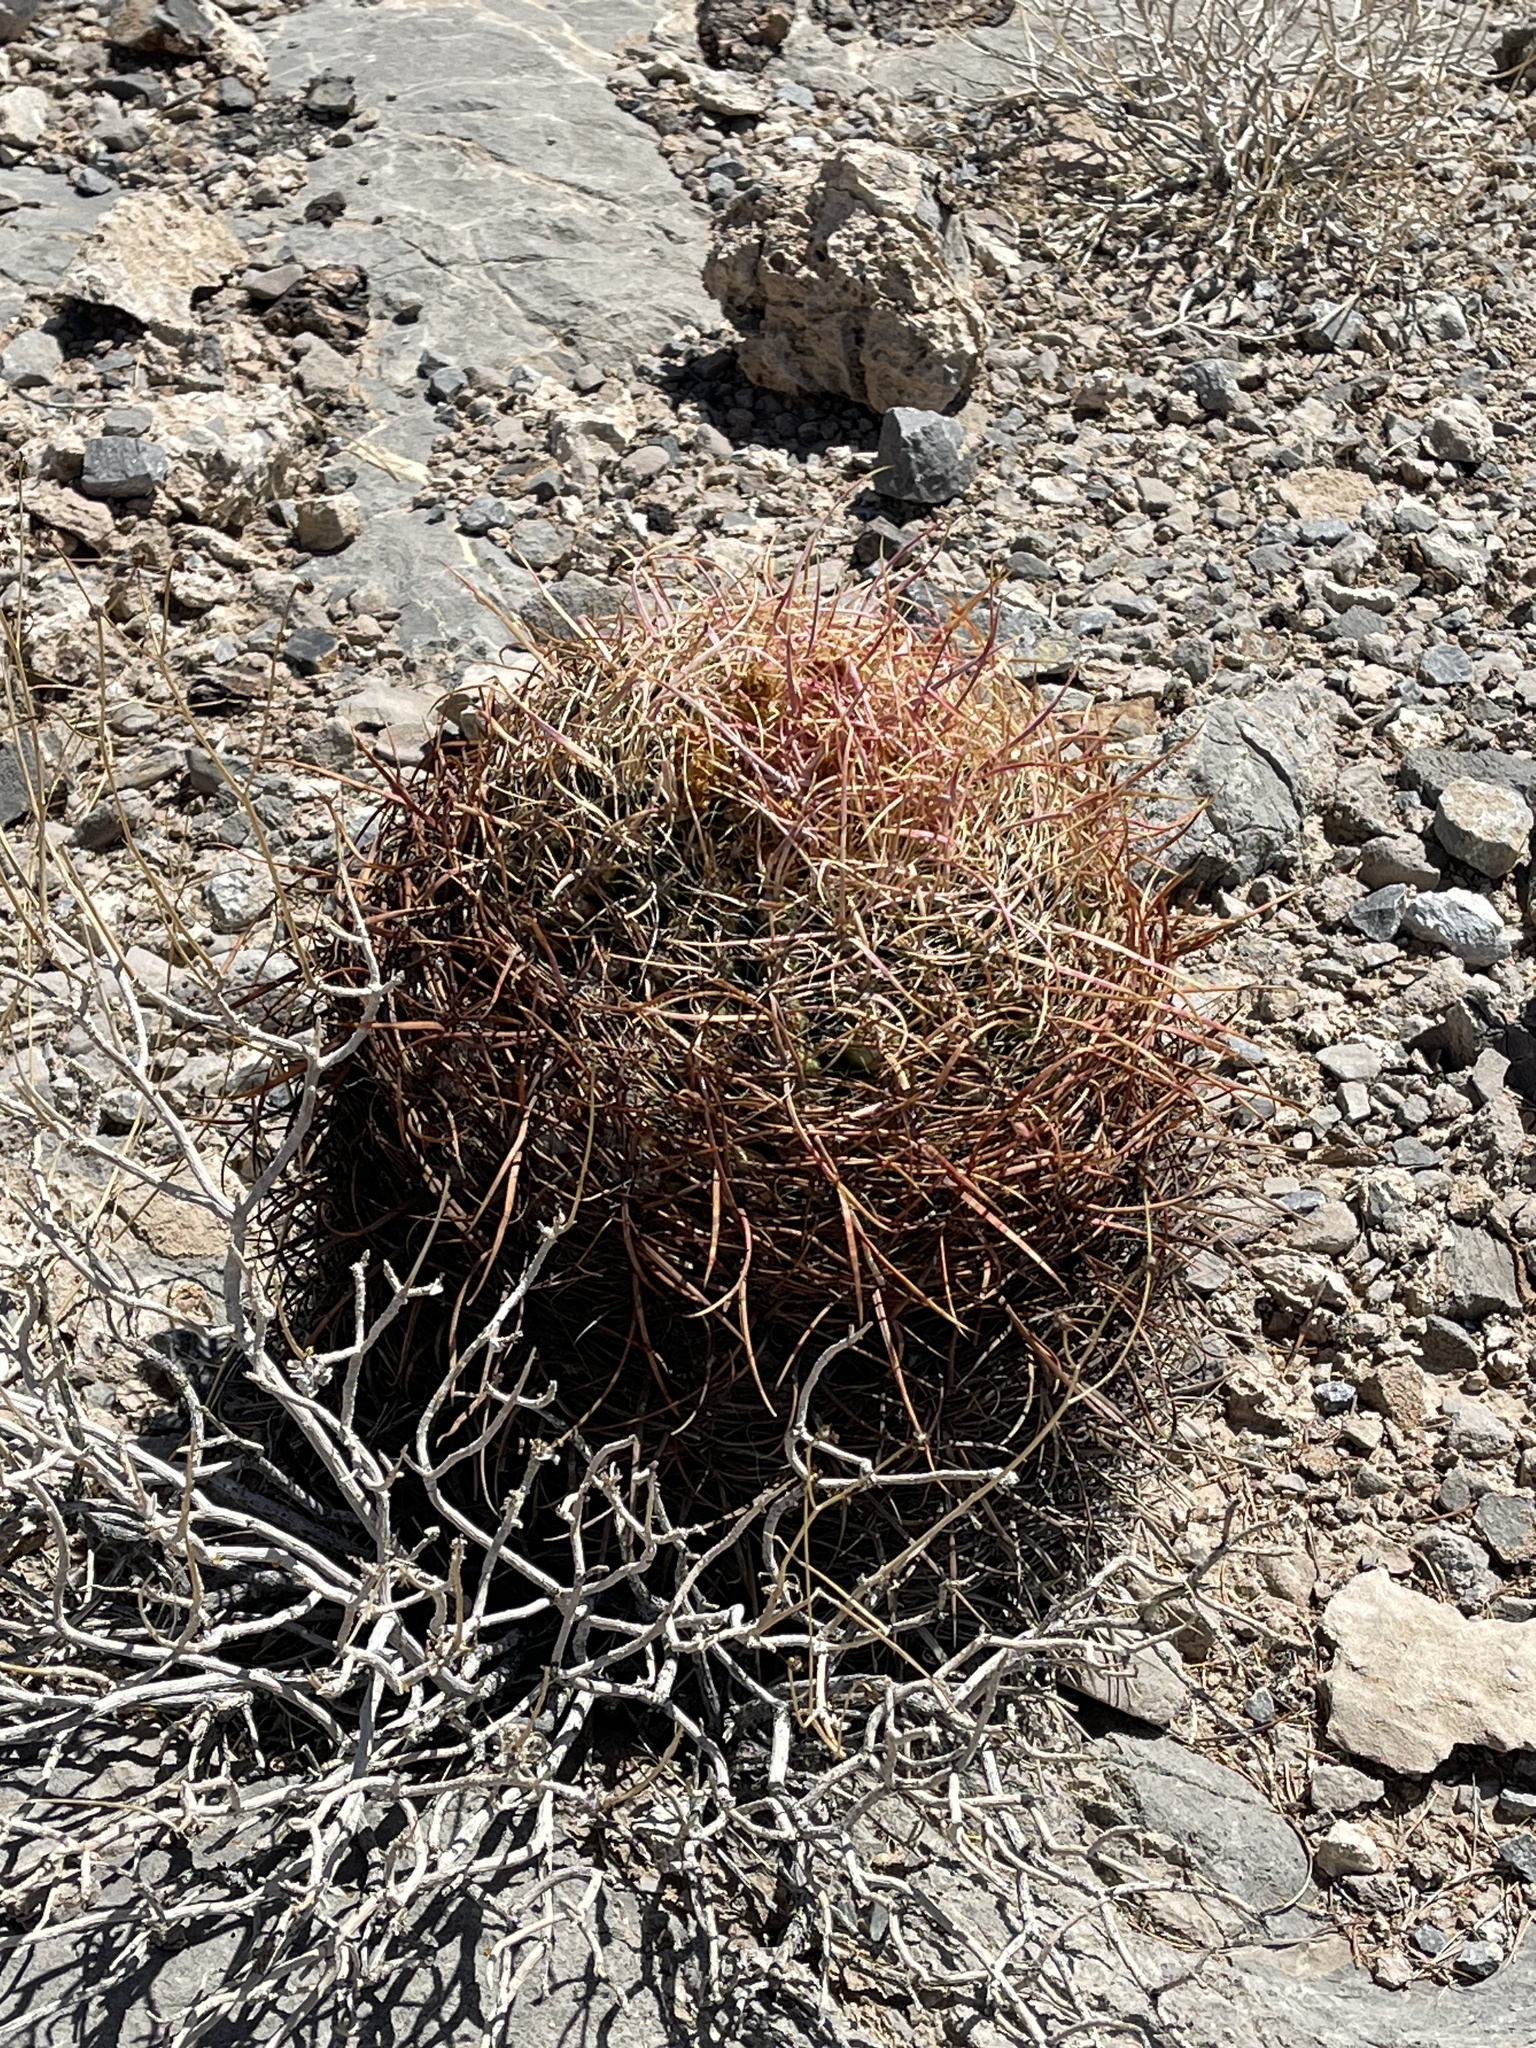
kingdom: Plantae
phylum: Tracheophyta
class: Magnoliopsida
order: Caryophyllales
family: Cactaceae
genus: Ferocactus
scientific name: Ferocactus cylindraceus
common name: California barrel cactus
